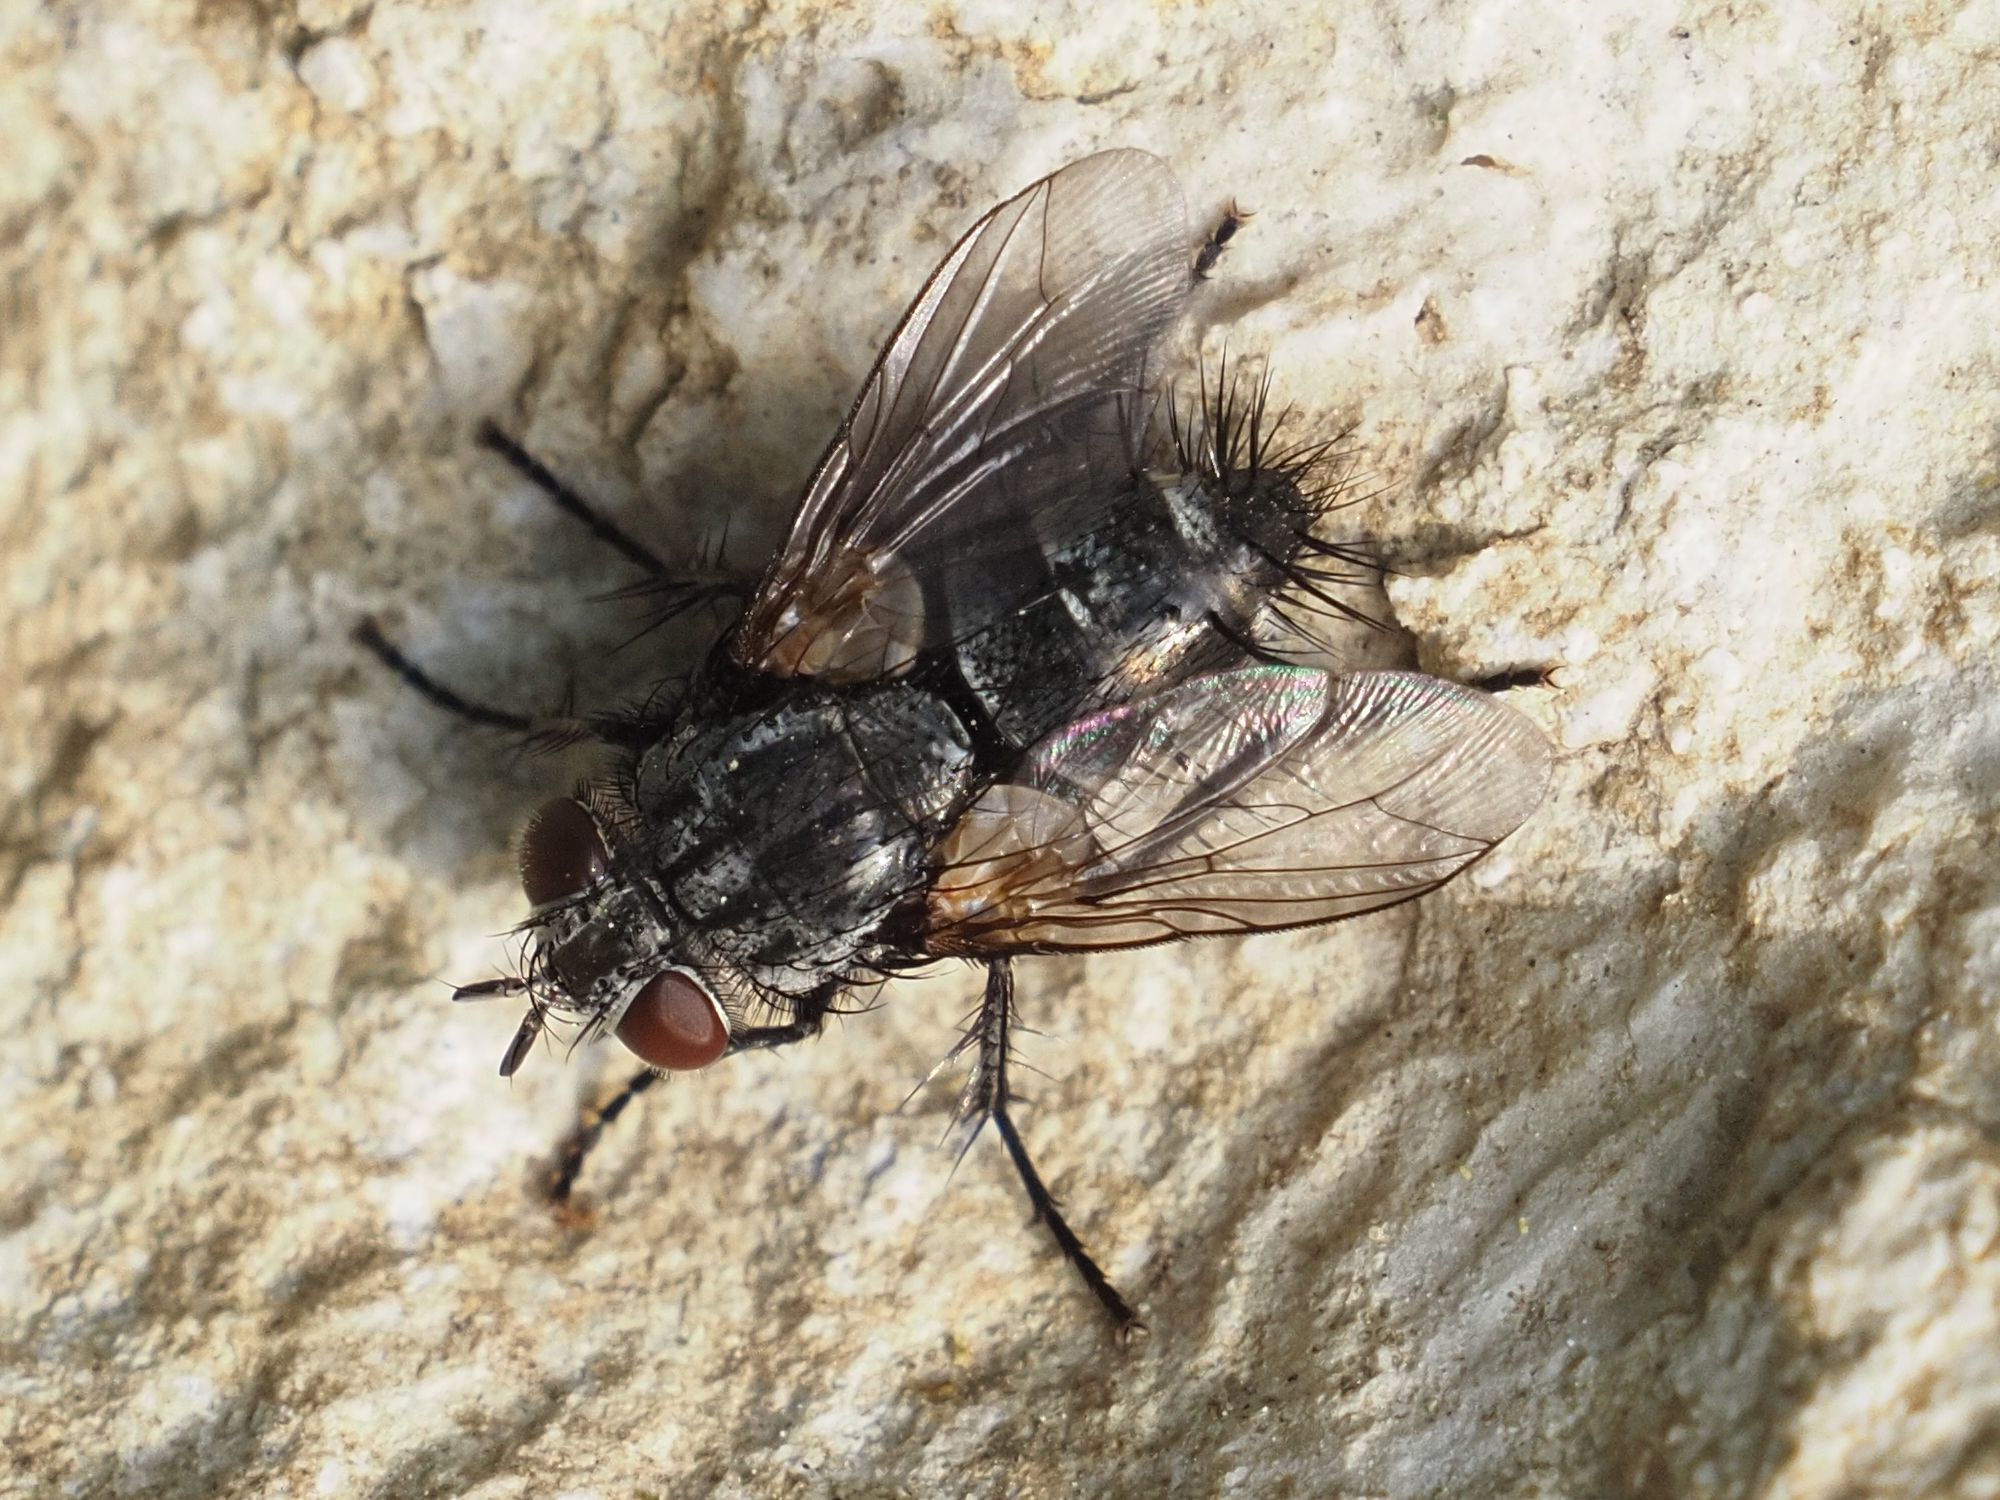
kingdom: Animalia
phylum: Arthropoda
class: Insecta
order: Diptera
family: Tachinidae
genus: Voria
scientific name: Voria ruralis
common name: Parasitic fly
